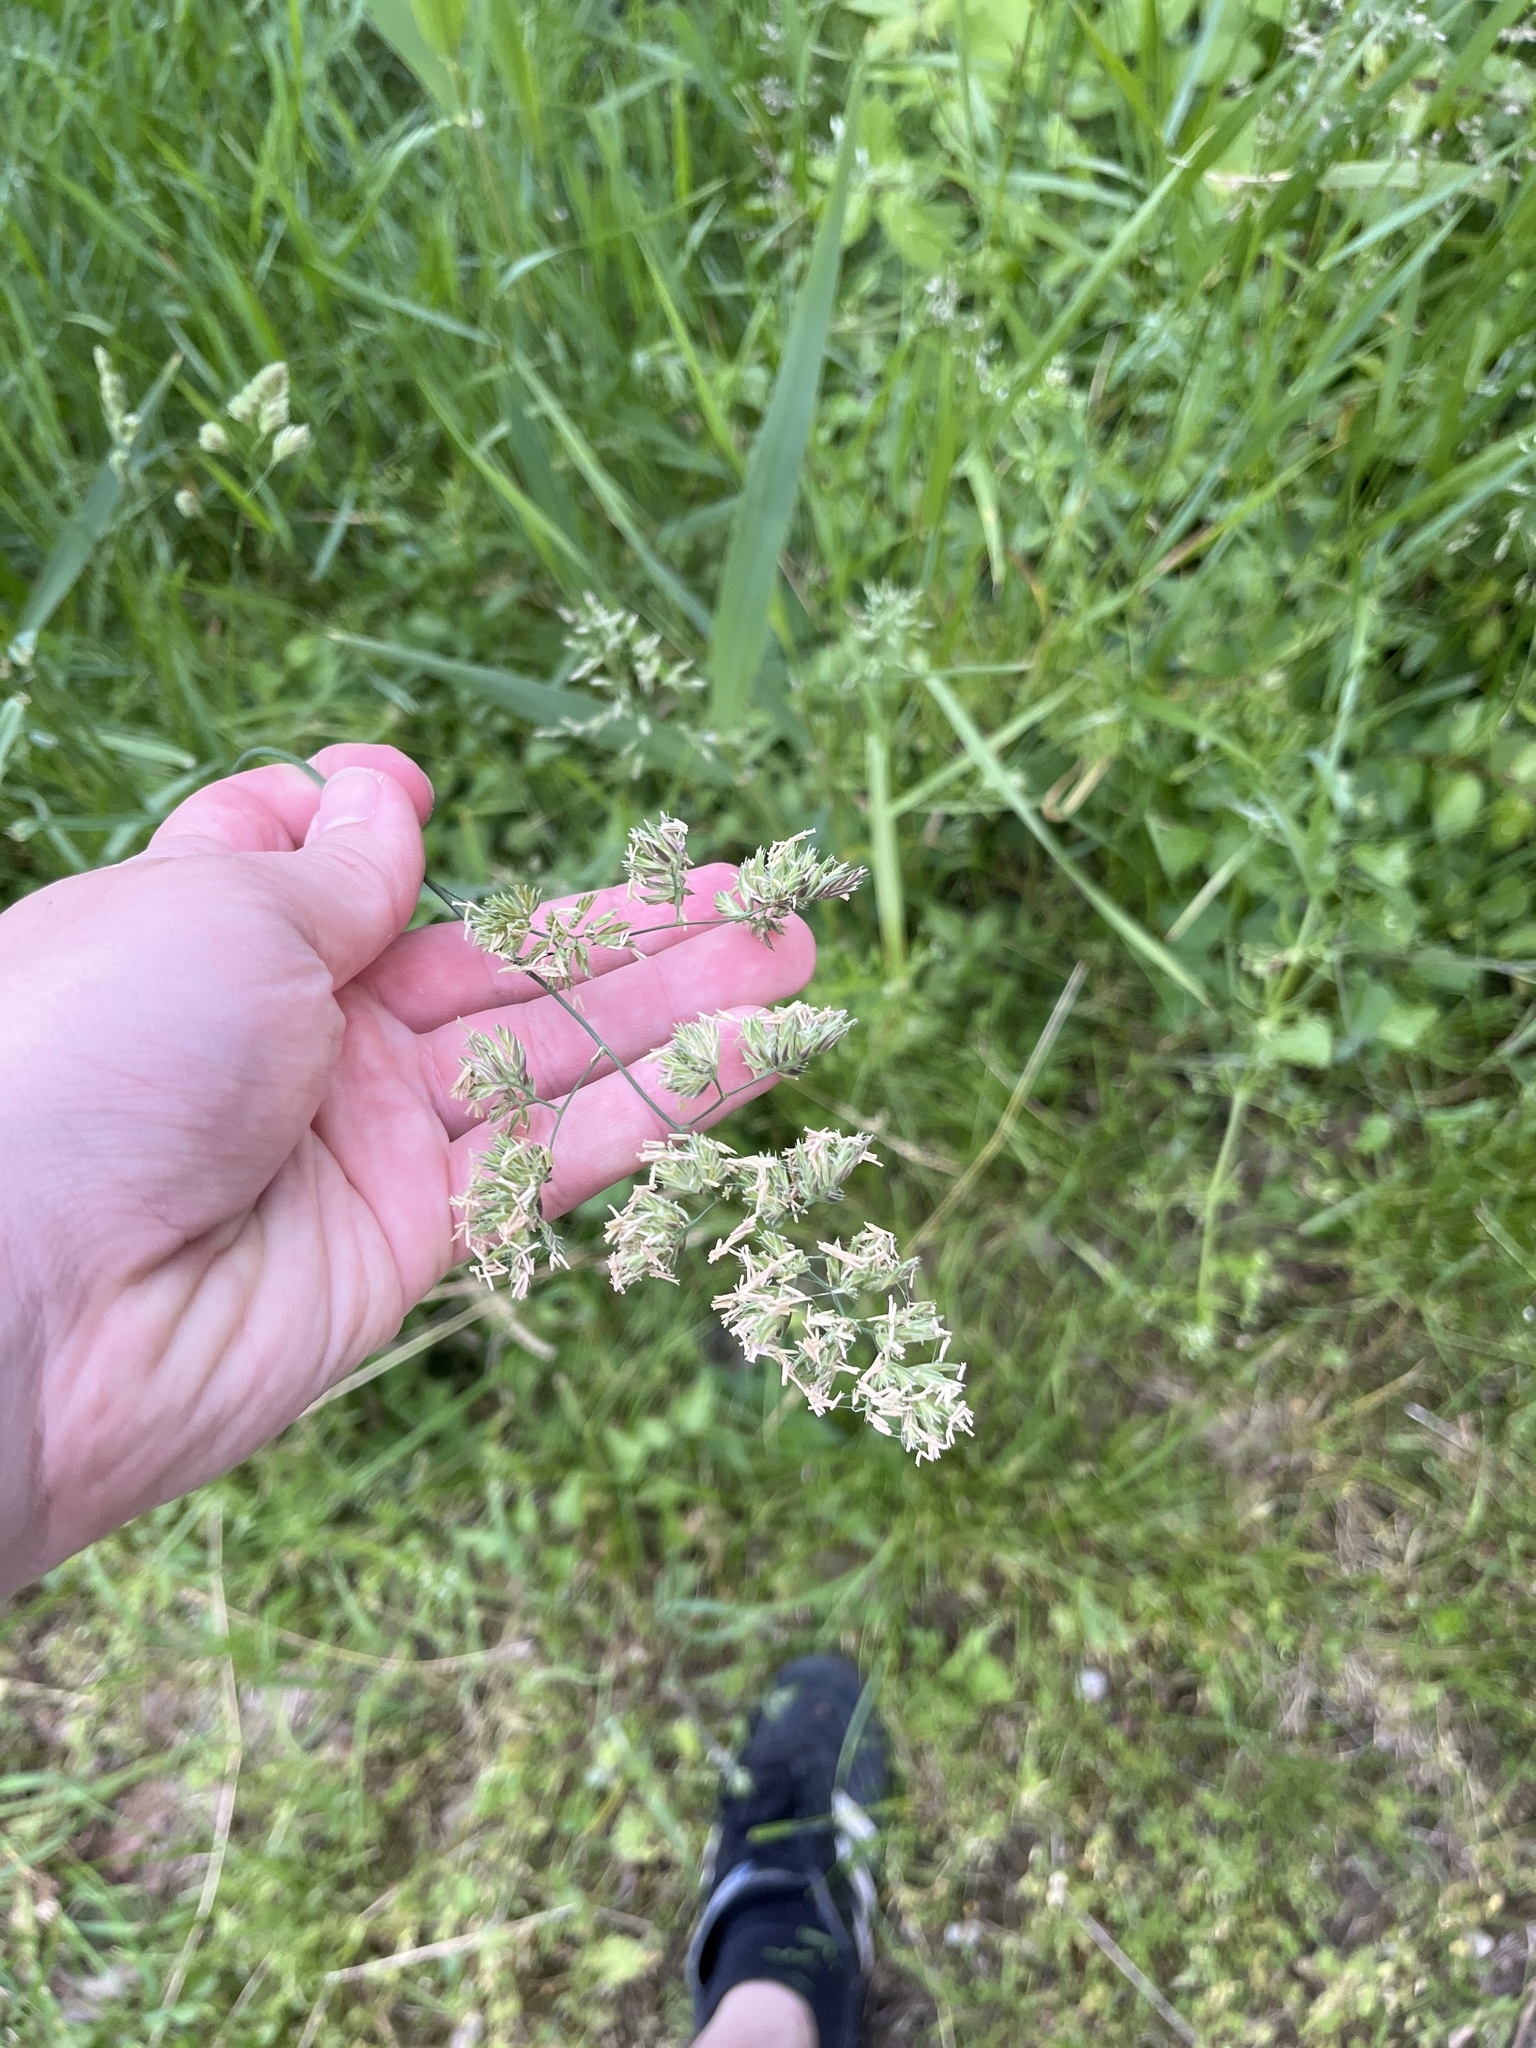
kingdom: Plantae
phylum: Tracheophyta
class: Liliopsida
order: Poales
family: Poaceae
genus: Dactylis
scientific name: Dactylis glomerata
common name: Orchardgrass
